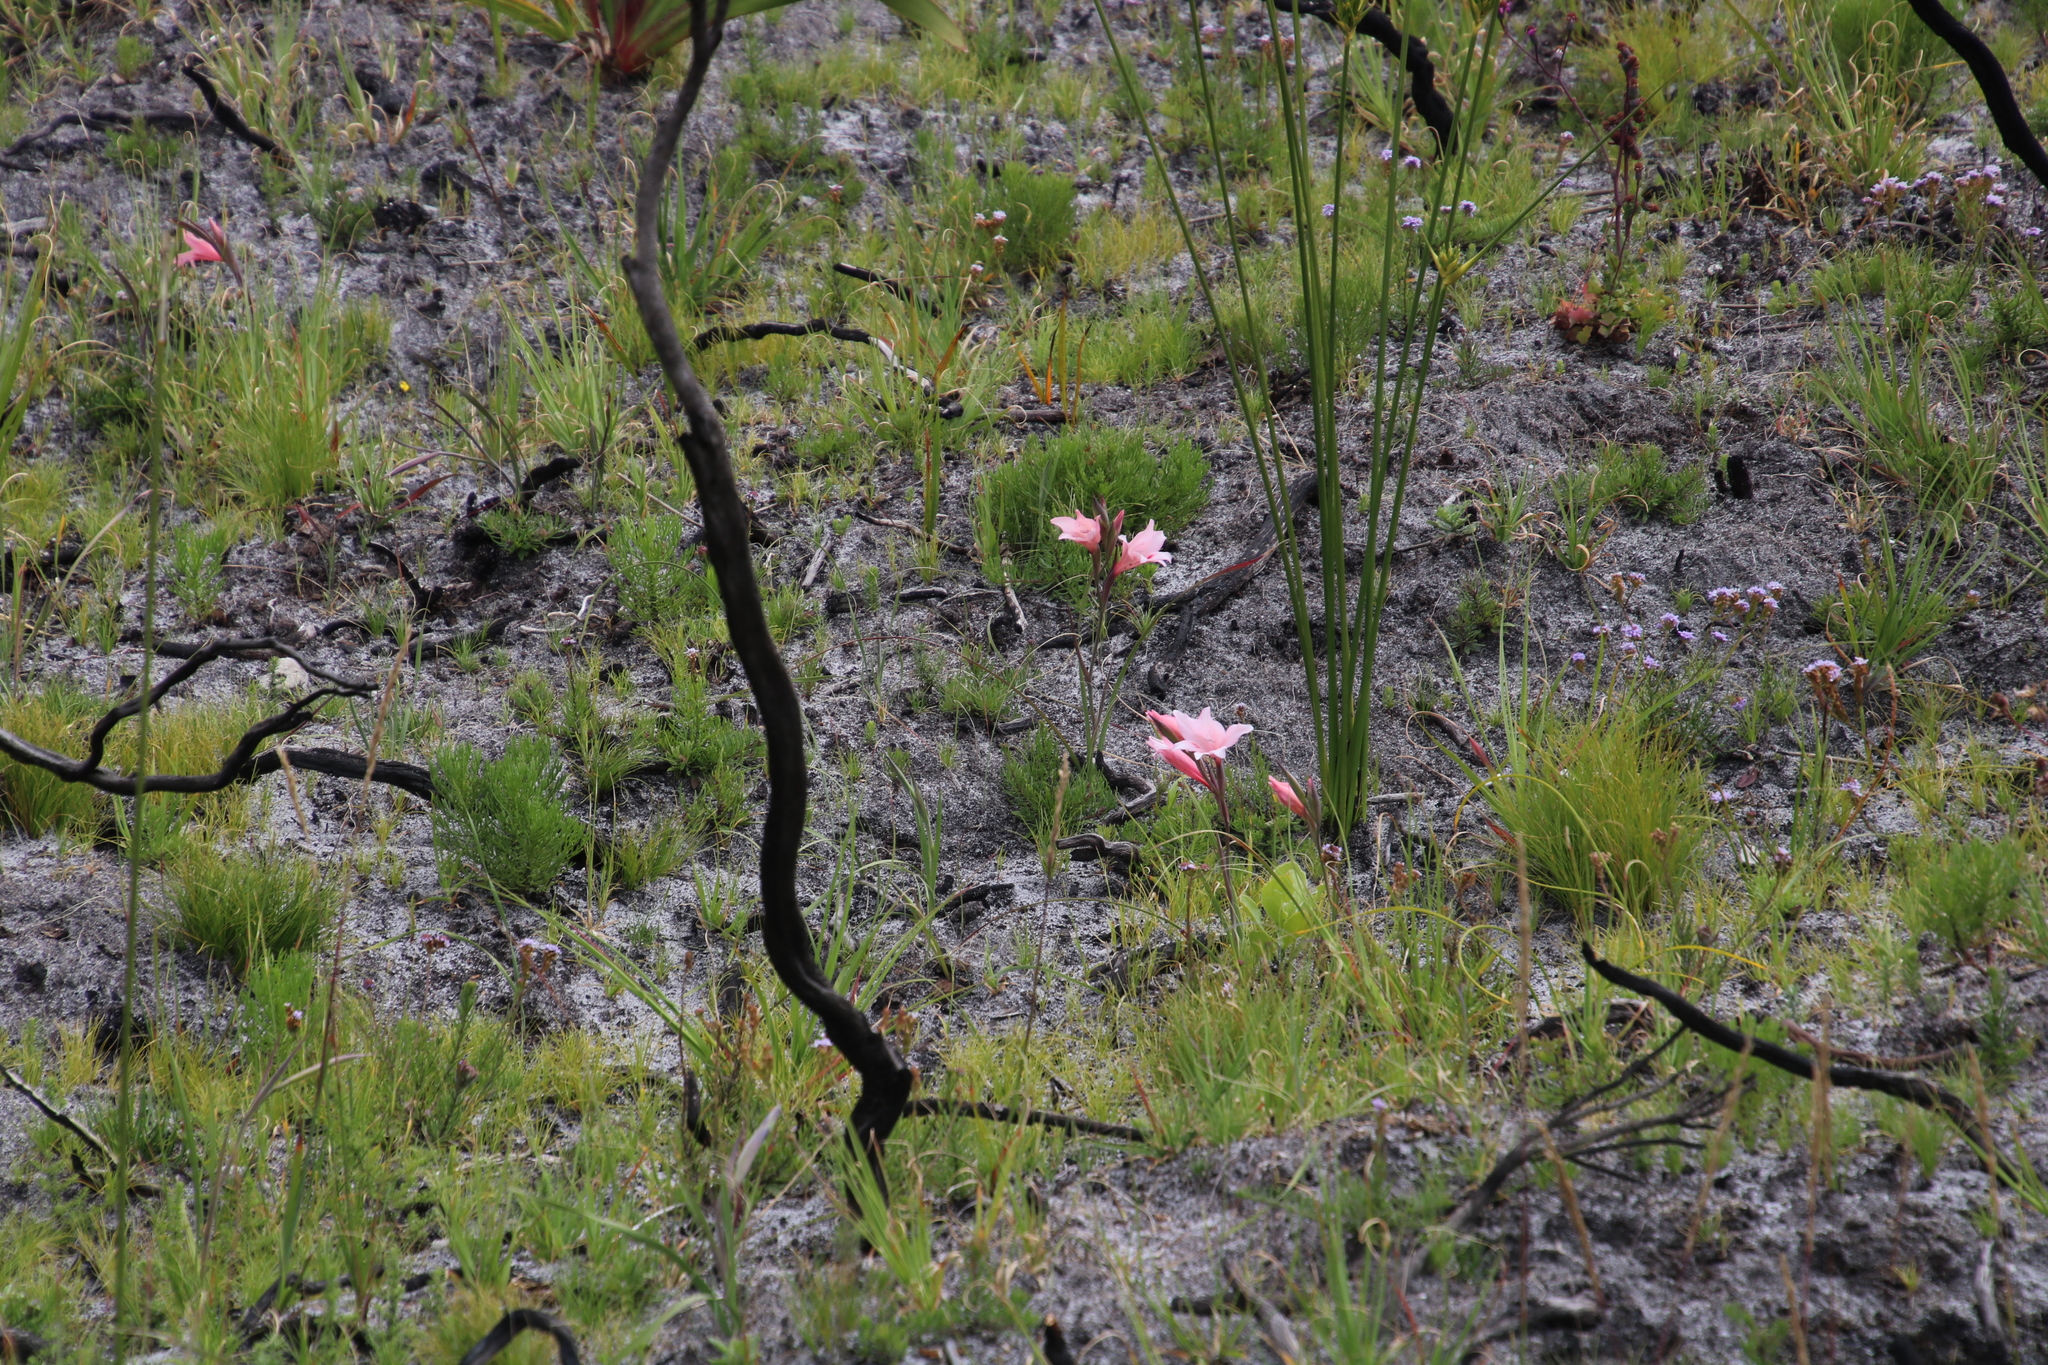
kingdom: Plantae
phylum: Tracheophyta
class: Liliopsida
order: Asparagales
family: Iridaceae
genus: Gladiolus
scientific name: Gladiolus carneus
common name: Painted-lady
